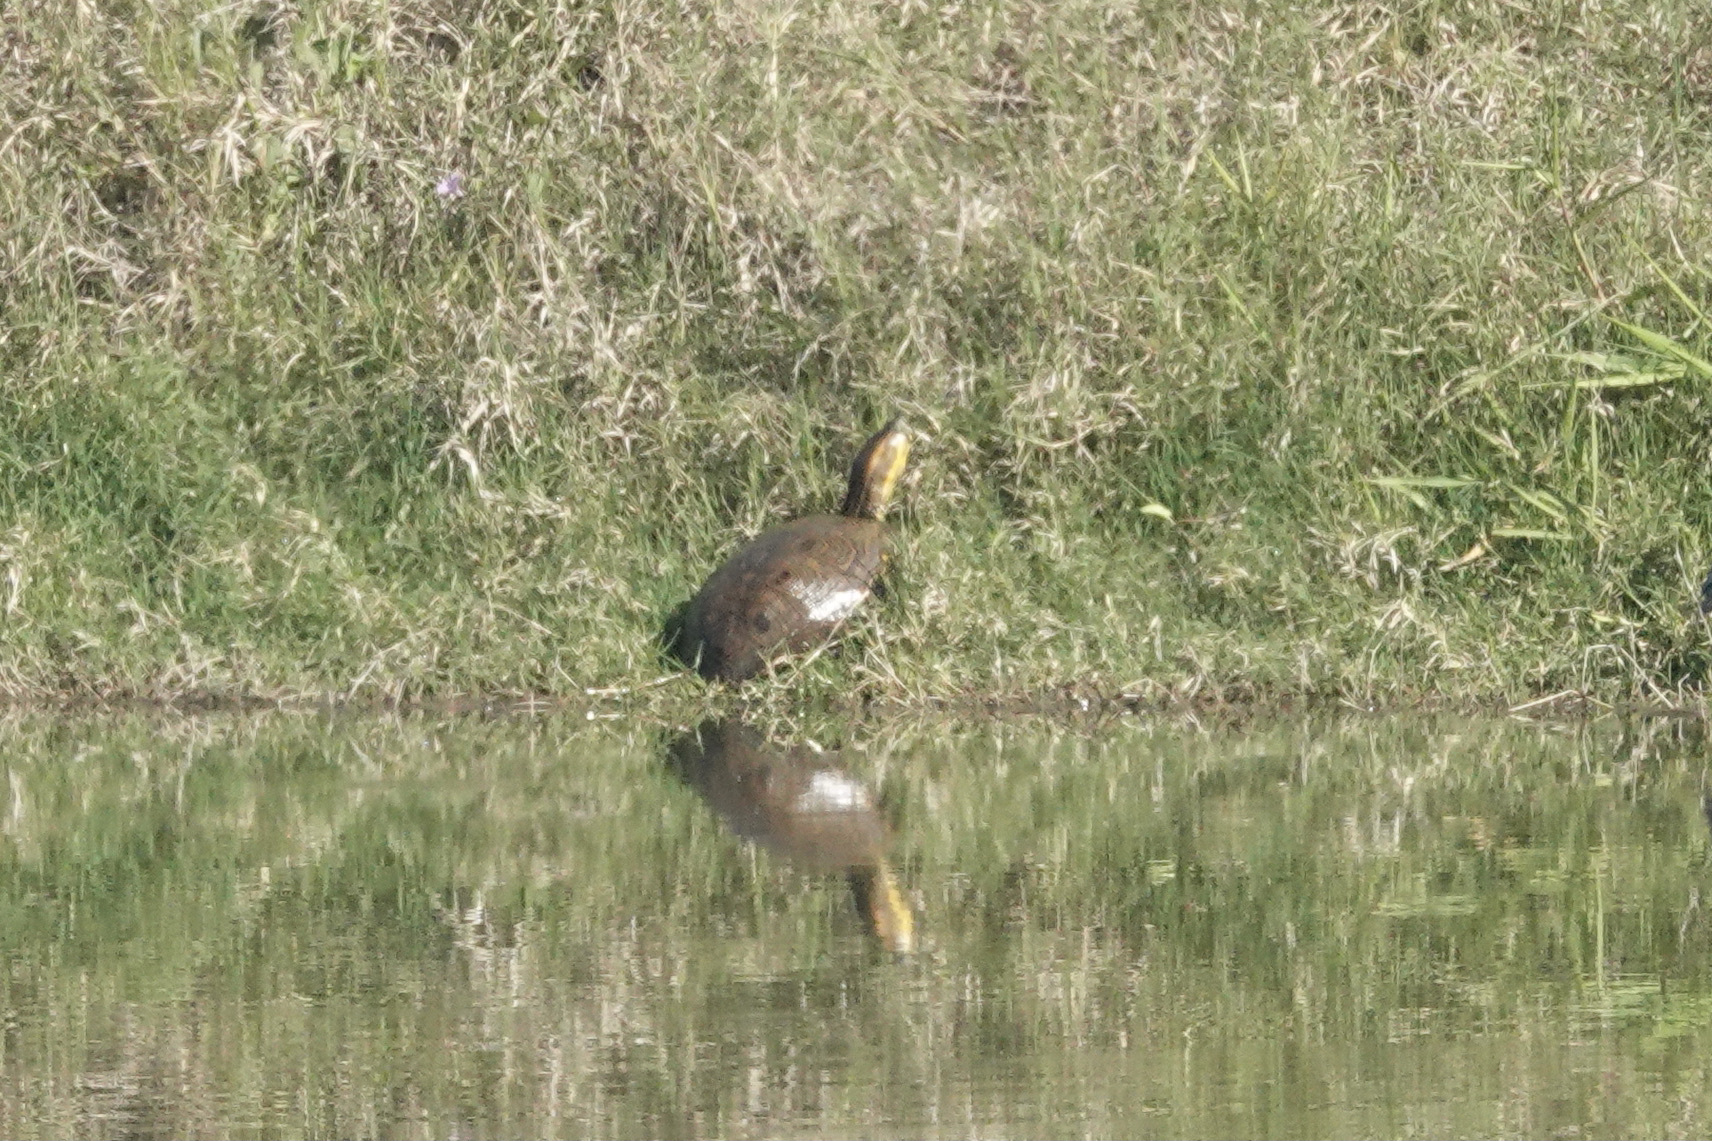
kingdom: Animalia
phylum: Chordata
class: Testudines
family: Emydidae
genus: Trachemys
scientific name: Trachemys ornata
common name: Ornate slider
